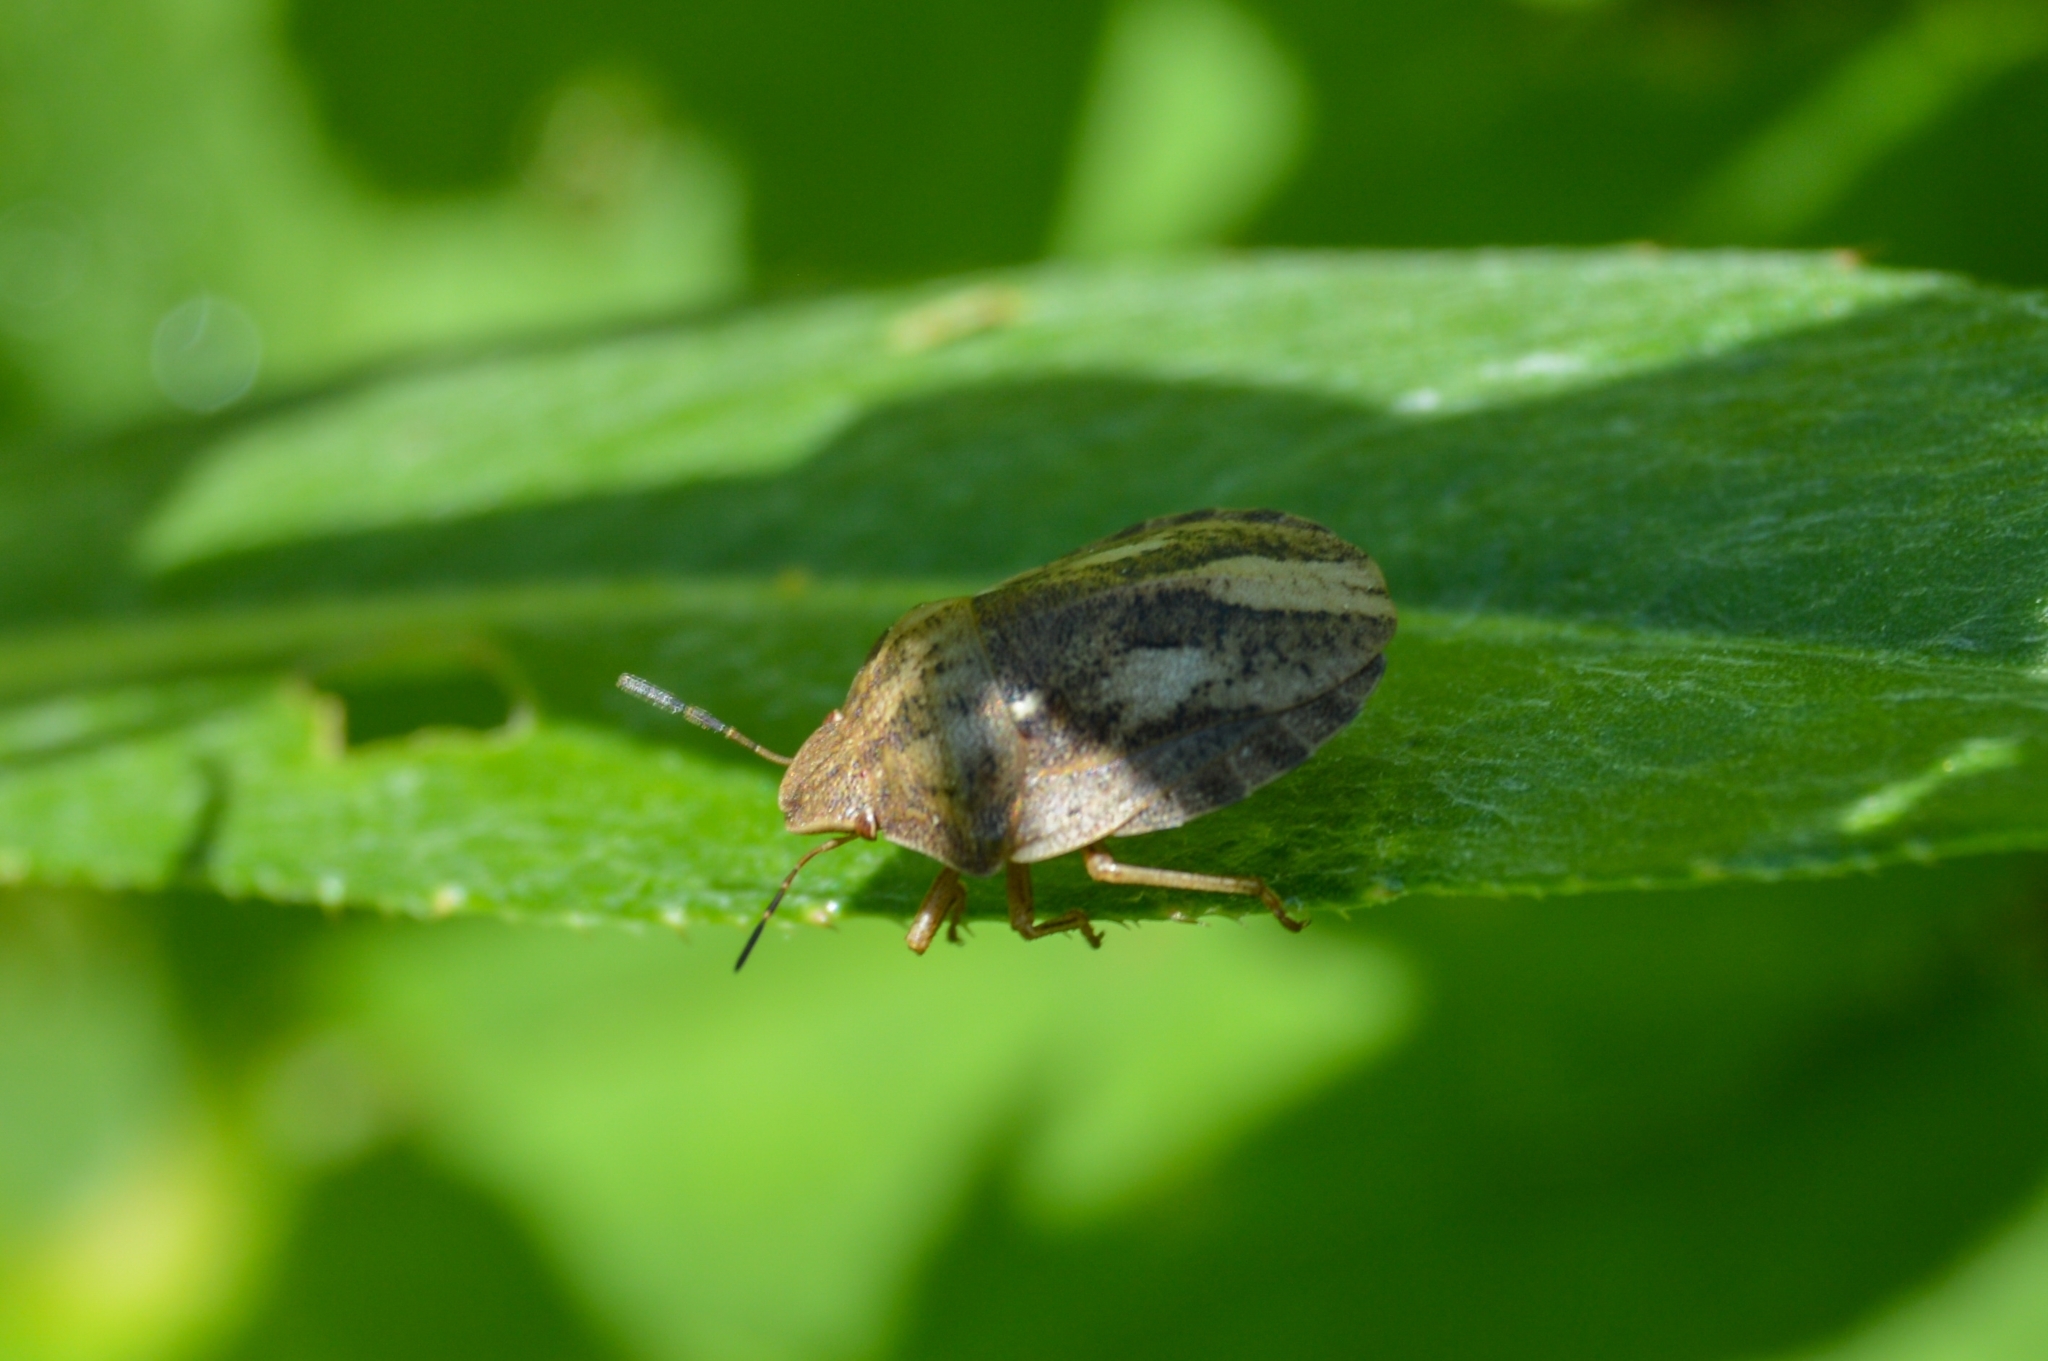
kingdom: Animalia
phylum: Arthropoda
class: Insecta
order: Hemiptera
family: Scutelleridae
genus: Eurygaster
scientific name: Eurygaster testudinaria
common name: Tortoise bug
